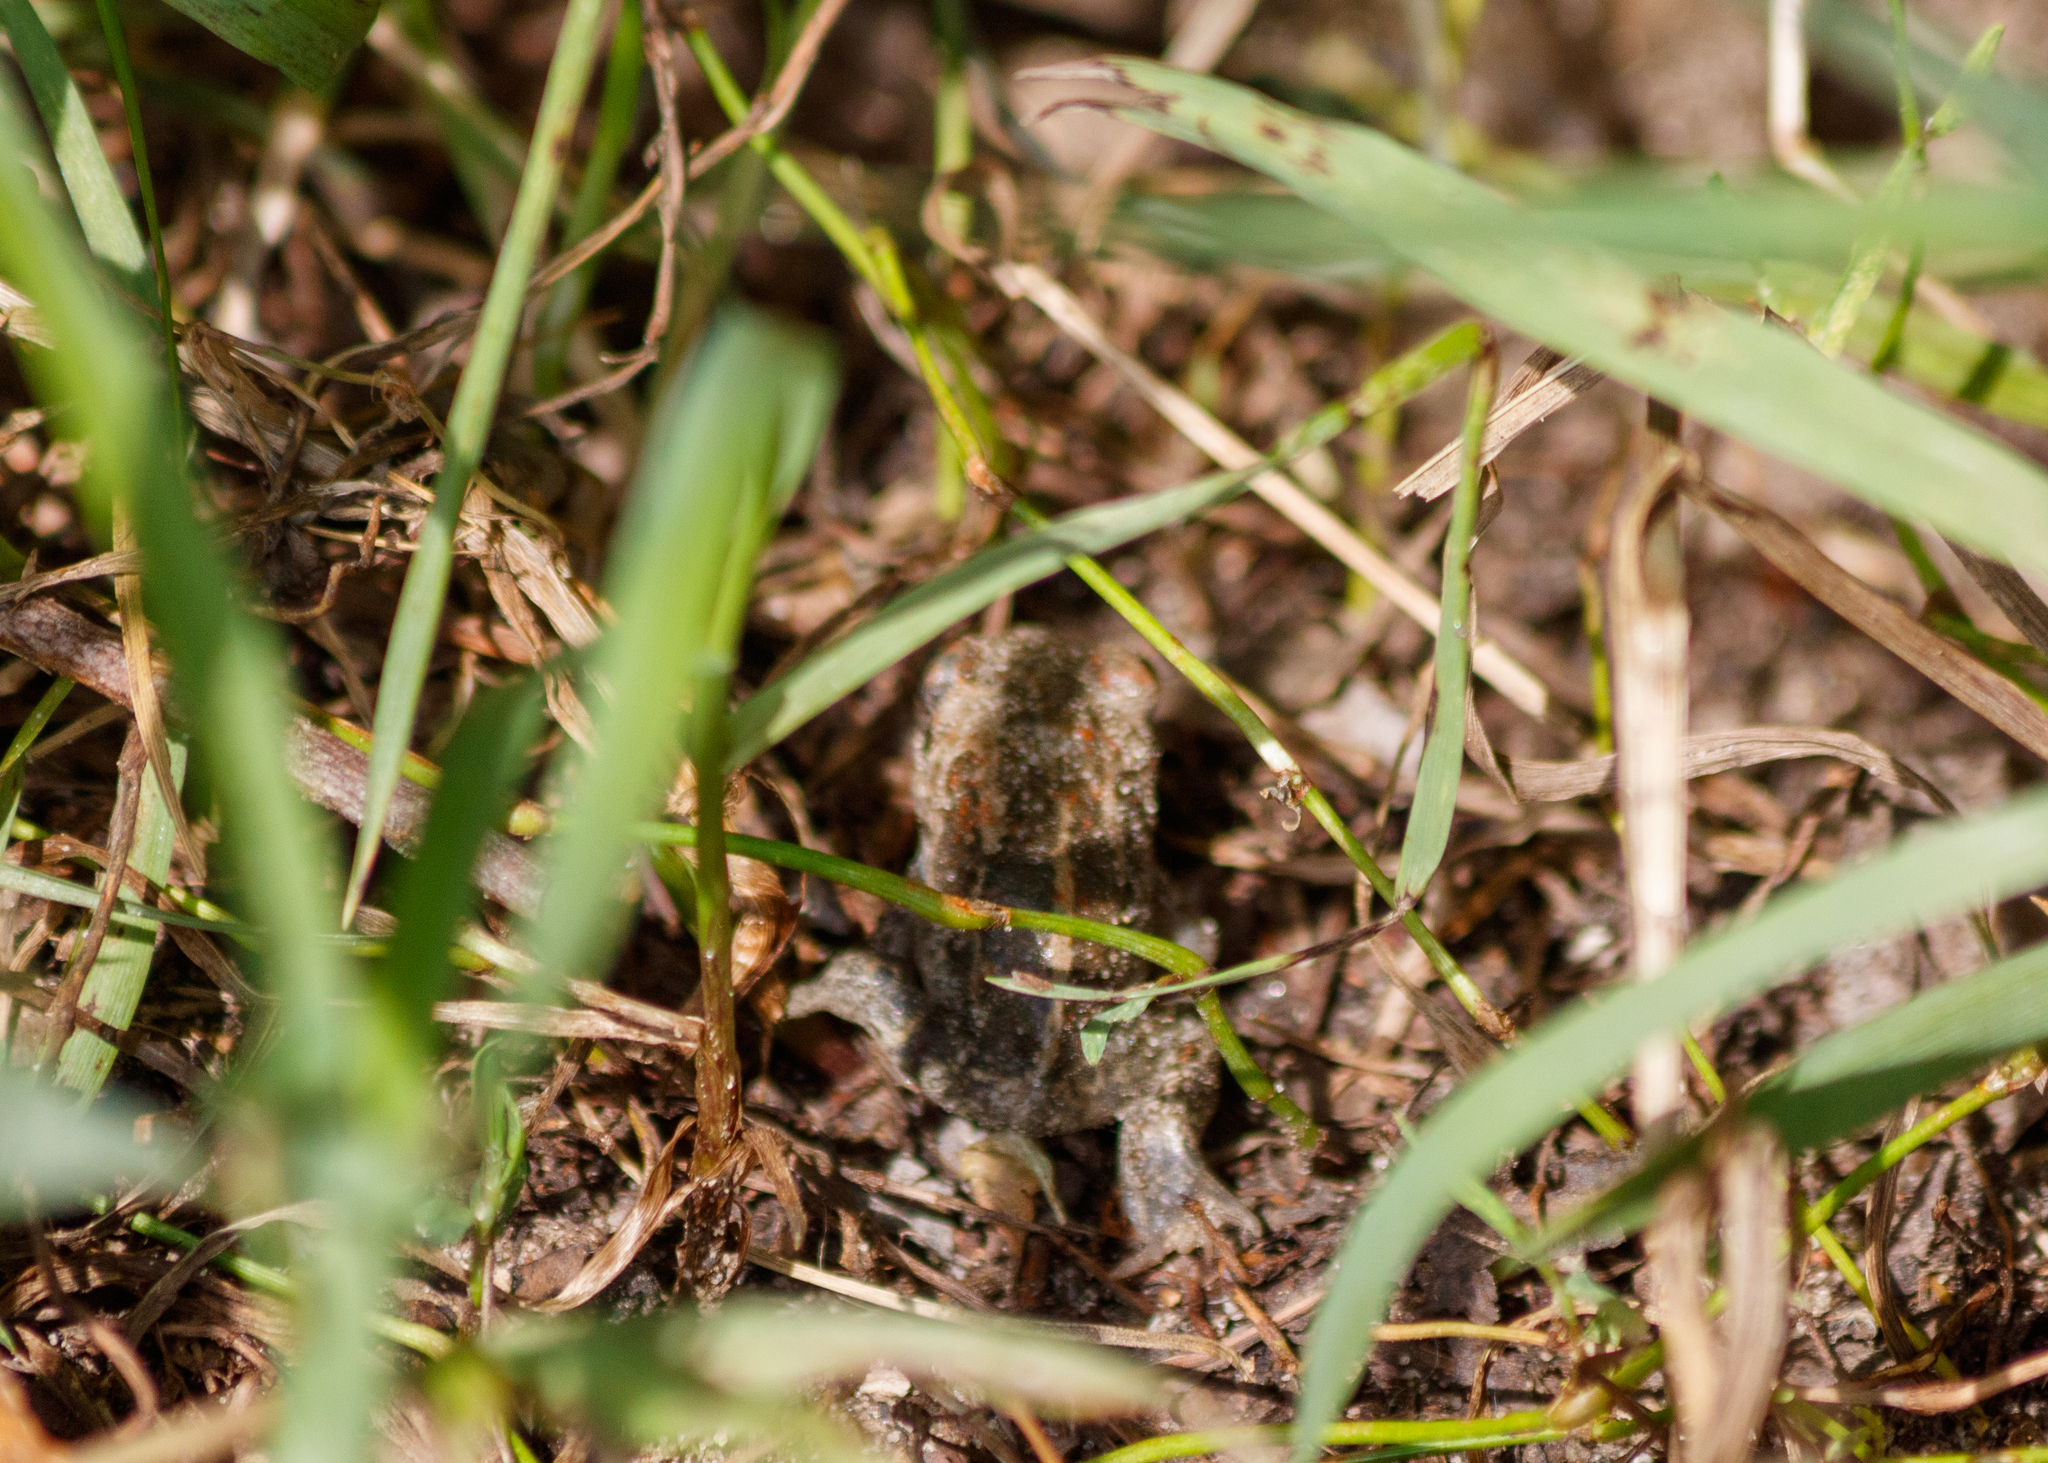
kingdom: Animalia
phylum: Chordata
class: Amphibia
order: Anura
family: Pelobatidae
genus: Pelobates
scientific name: Pelobates vespertinus
